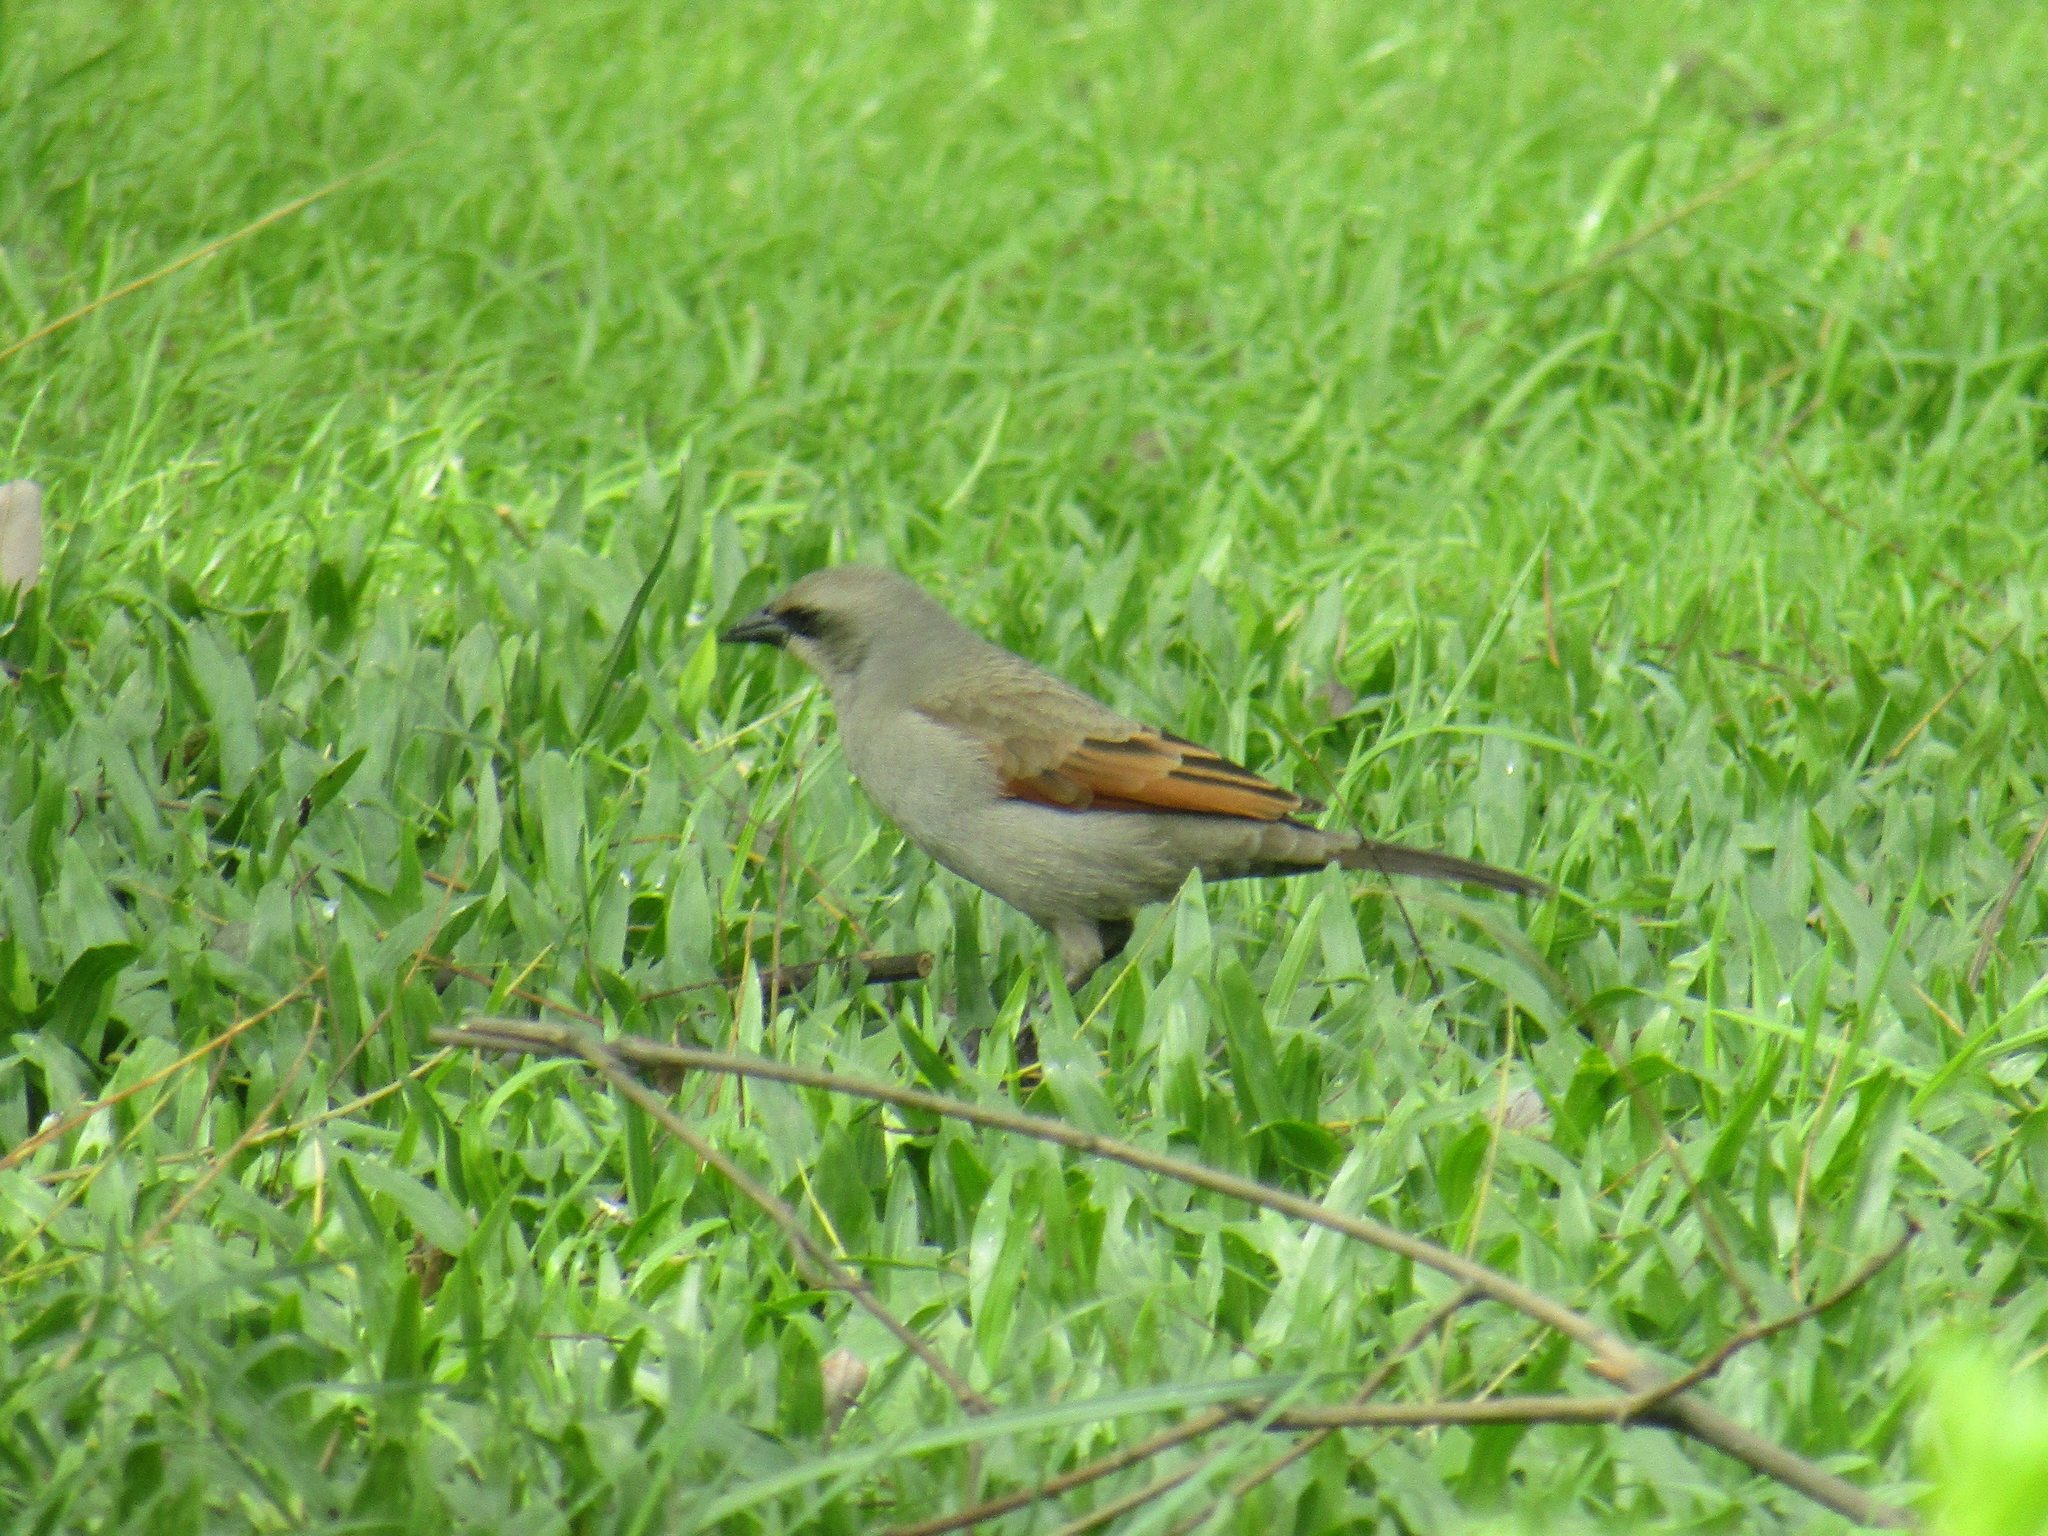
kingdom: Animalia
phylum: Chordata
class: Aves
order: Passeriformes
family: Icteridae
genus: Agelaioides
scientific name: Agelaioides badius
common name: Baywing
